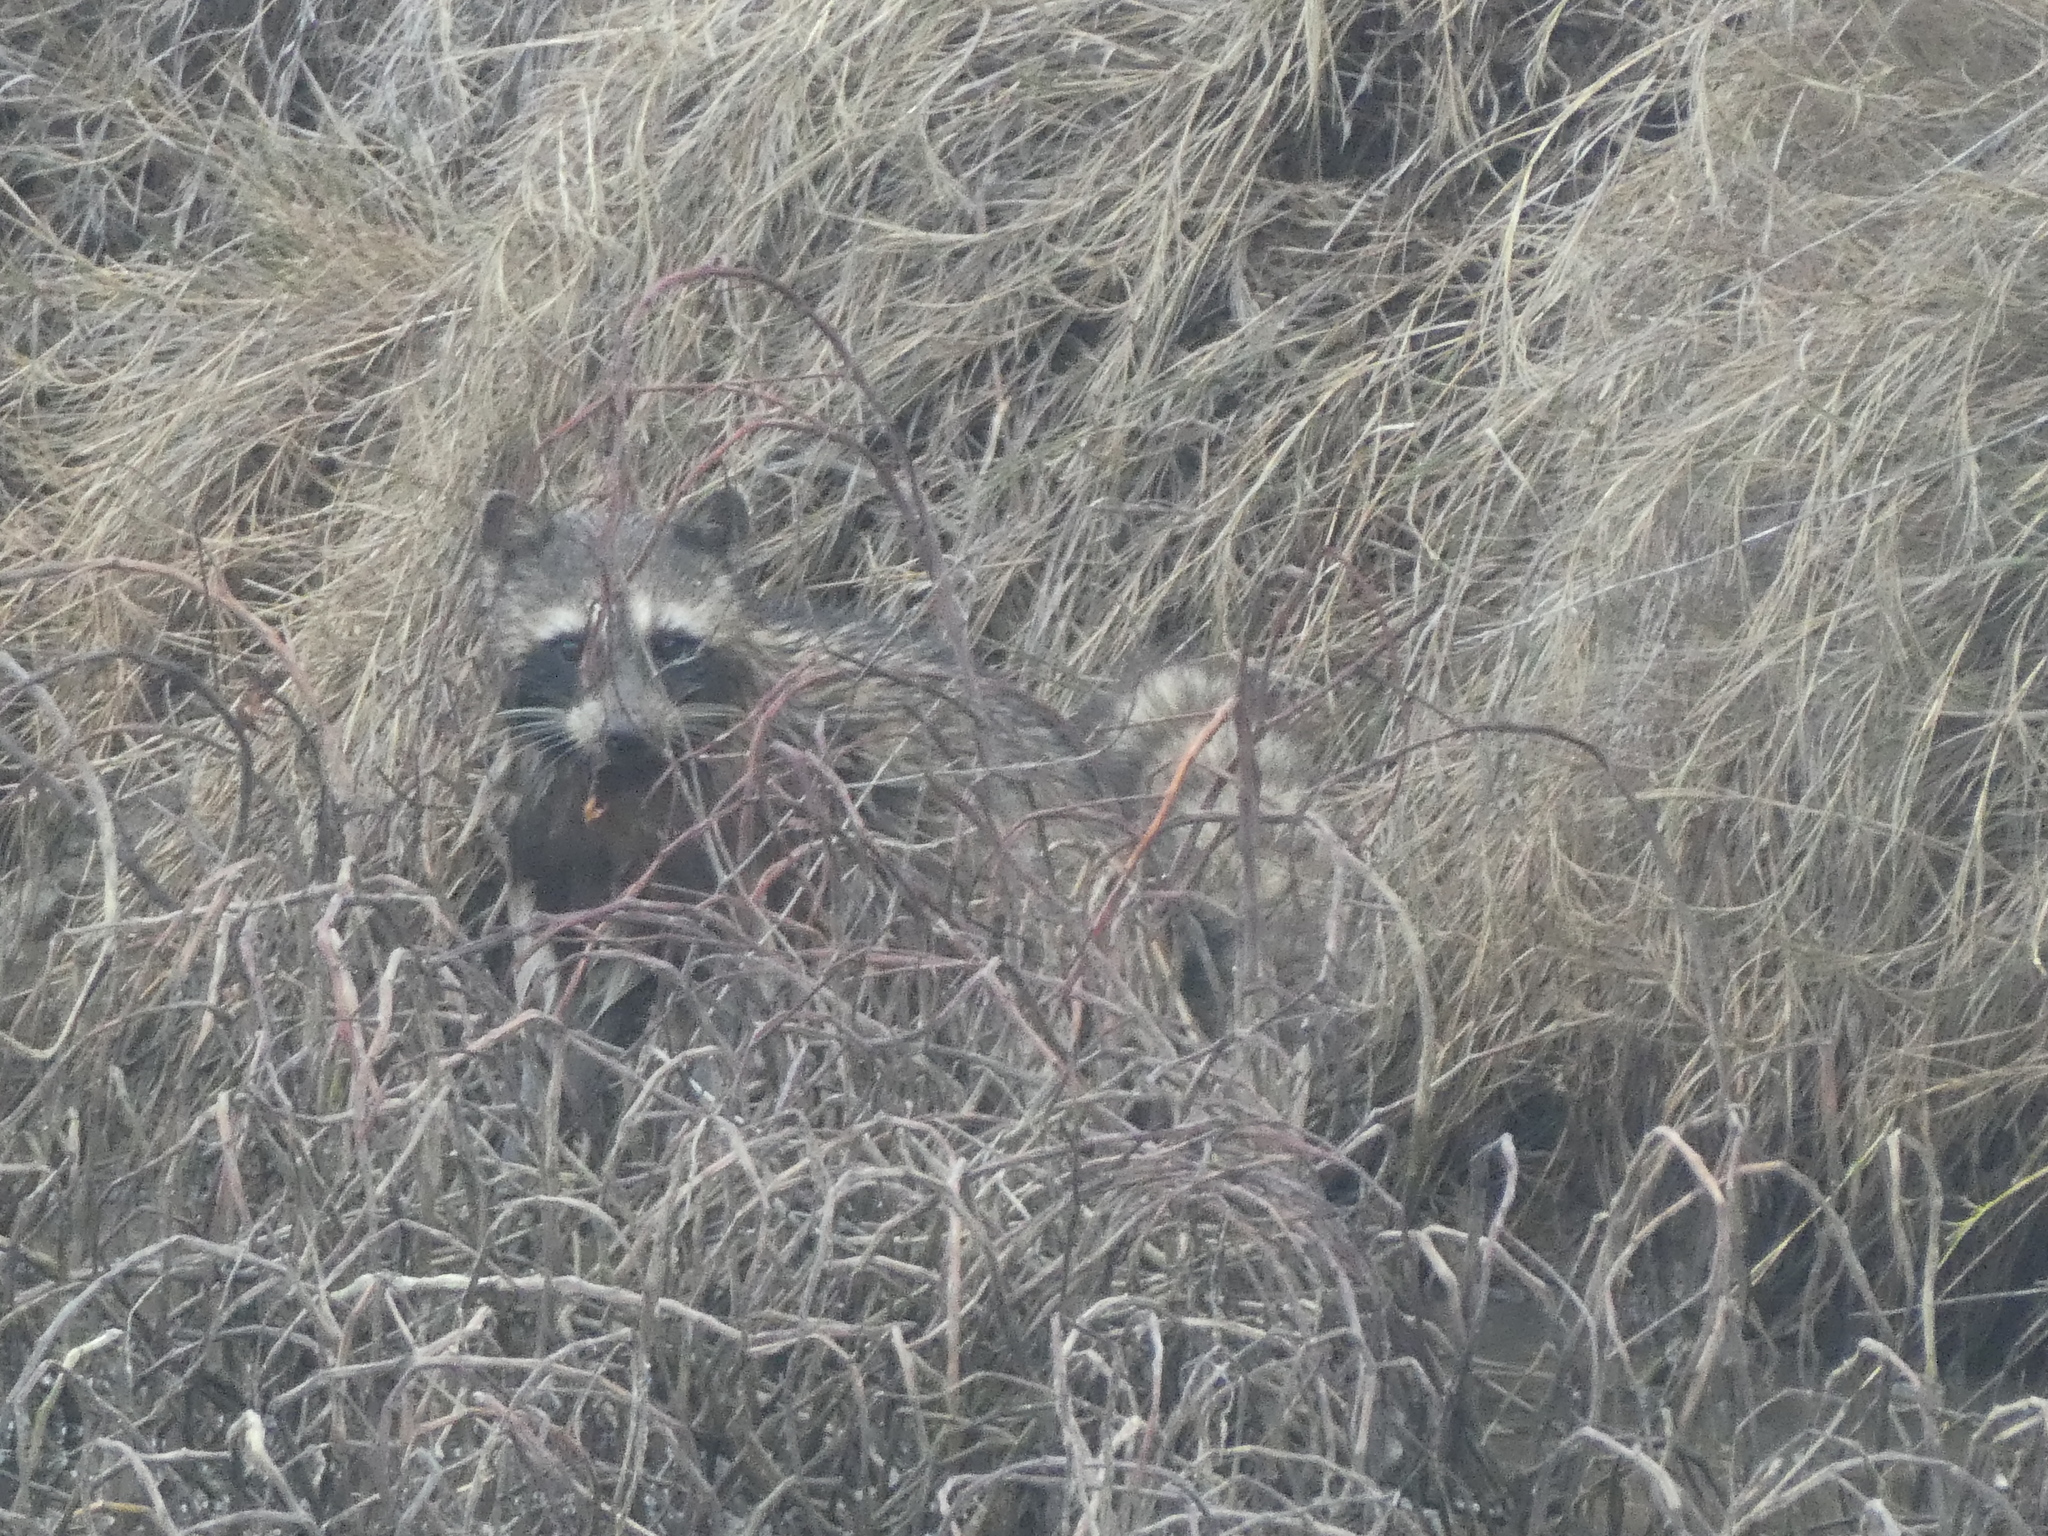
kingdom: Animalia
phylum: Chordata
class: Mammalia
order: Carnivora
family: Procyonidae
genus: Procyon
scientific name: Procyon lotor
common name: Raccoon
